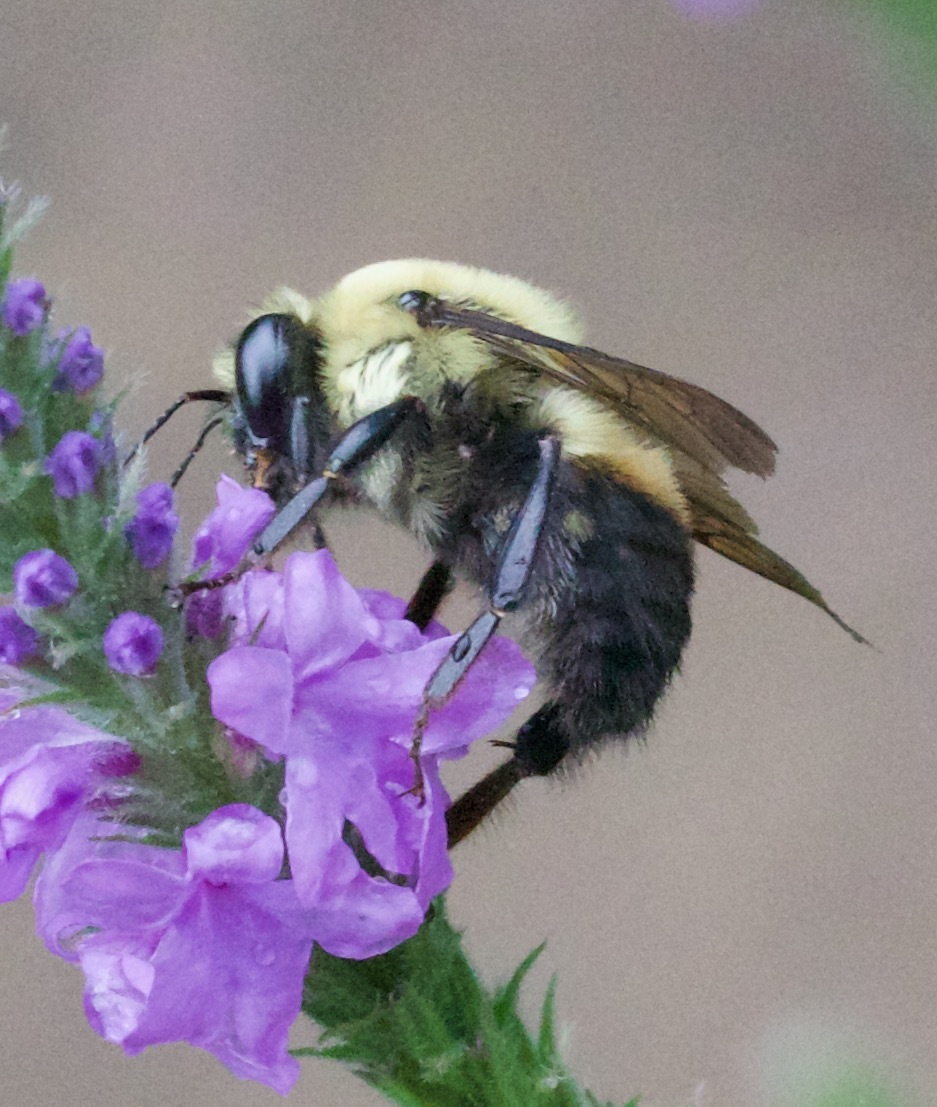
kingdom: Animalia
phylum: Arthropoda
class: Insecta
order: Hymenoptera
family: Apidae
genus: Bombus
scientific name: Bombus griseocollis
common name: Brown-belted bumble bee
